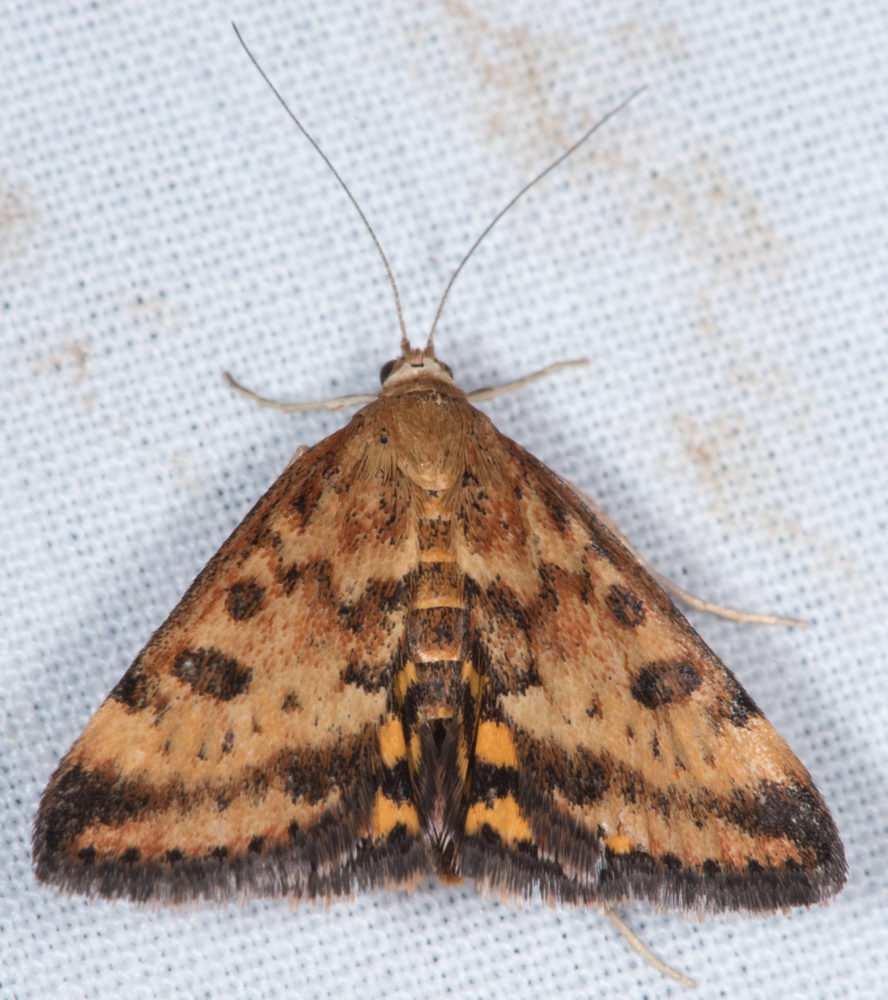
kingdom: Animalia
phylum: Arthropoda
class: Insecta
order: Lepidoptera
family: Crambidae
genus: Pyrausta
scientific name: Pyrausta subsequalis
